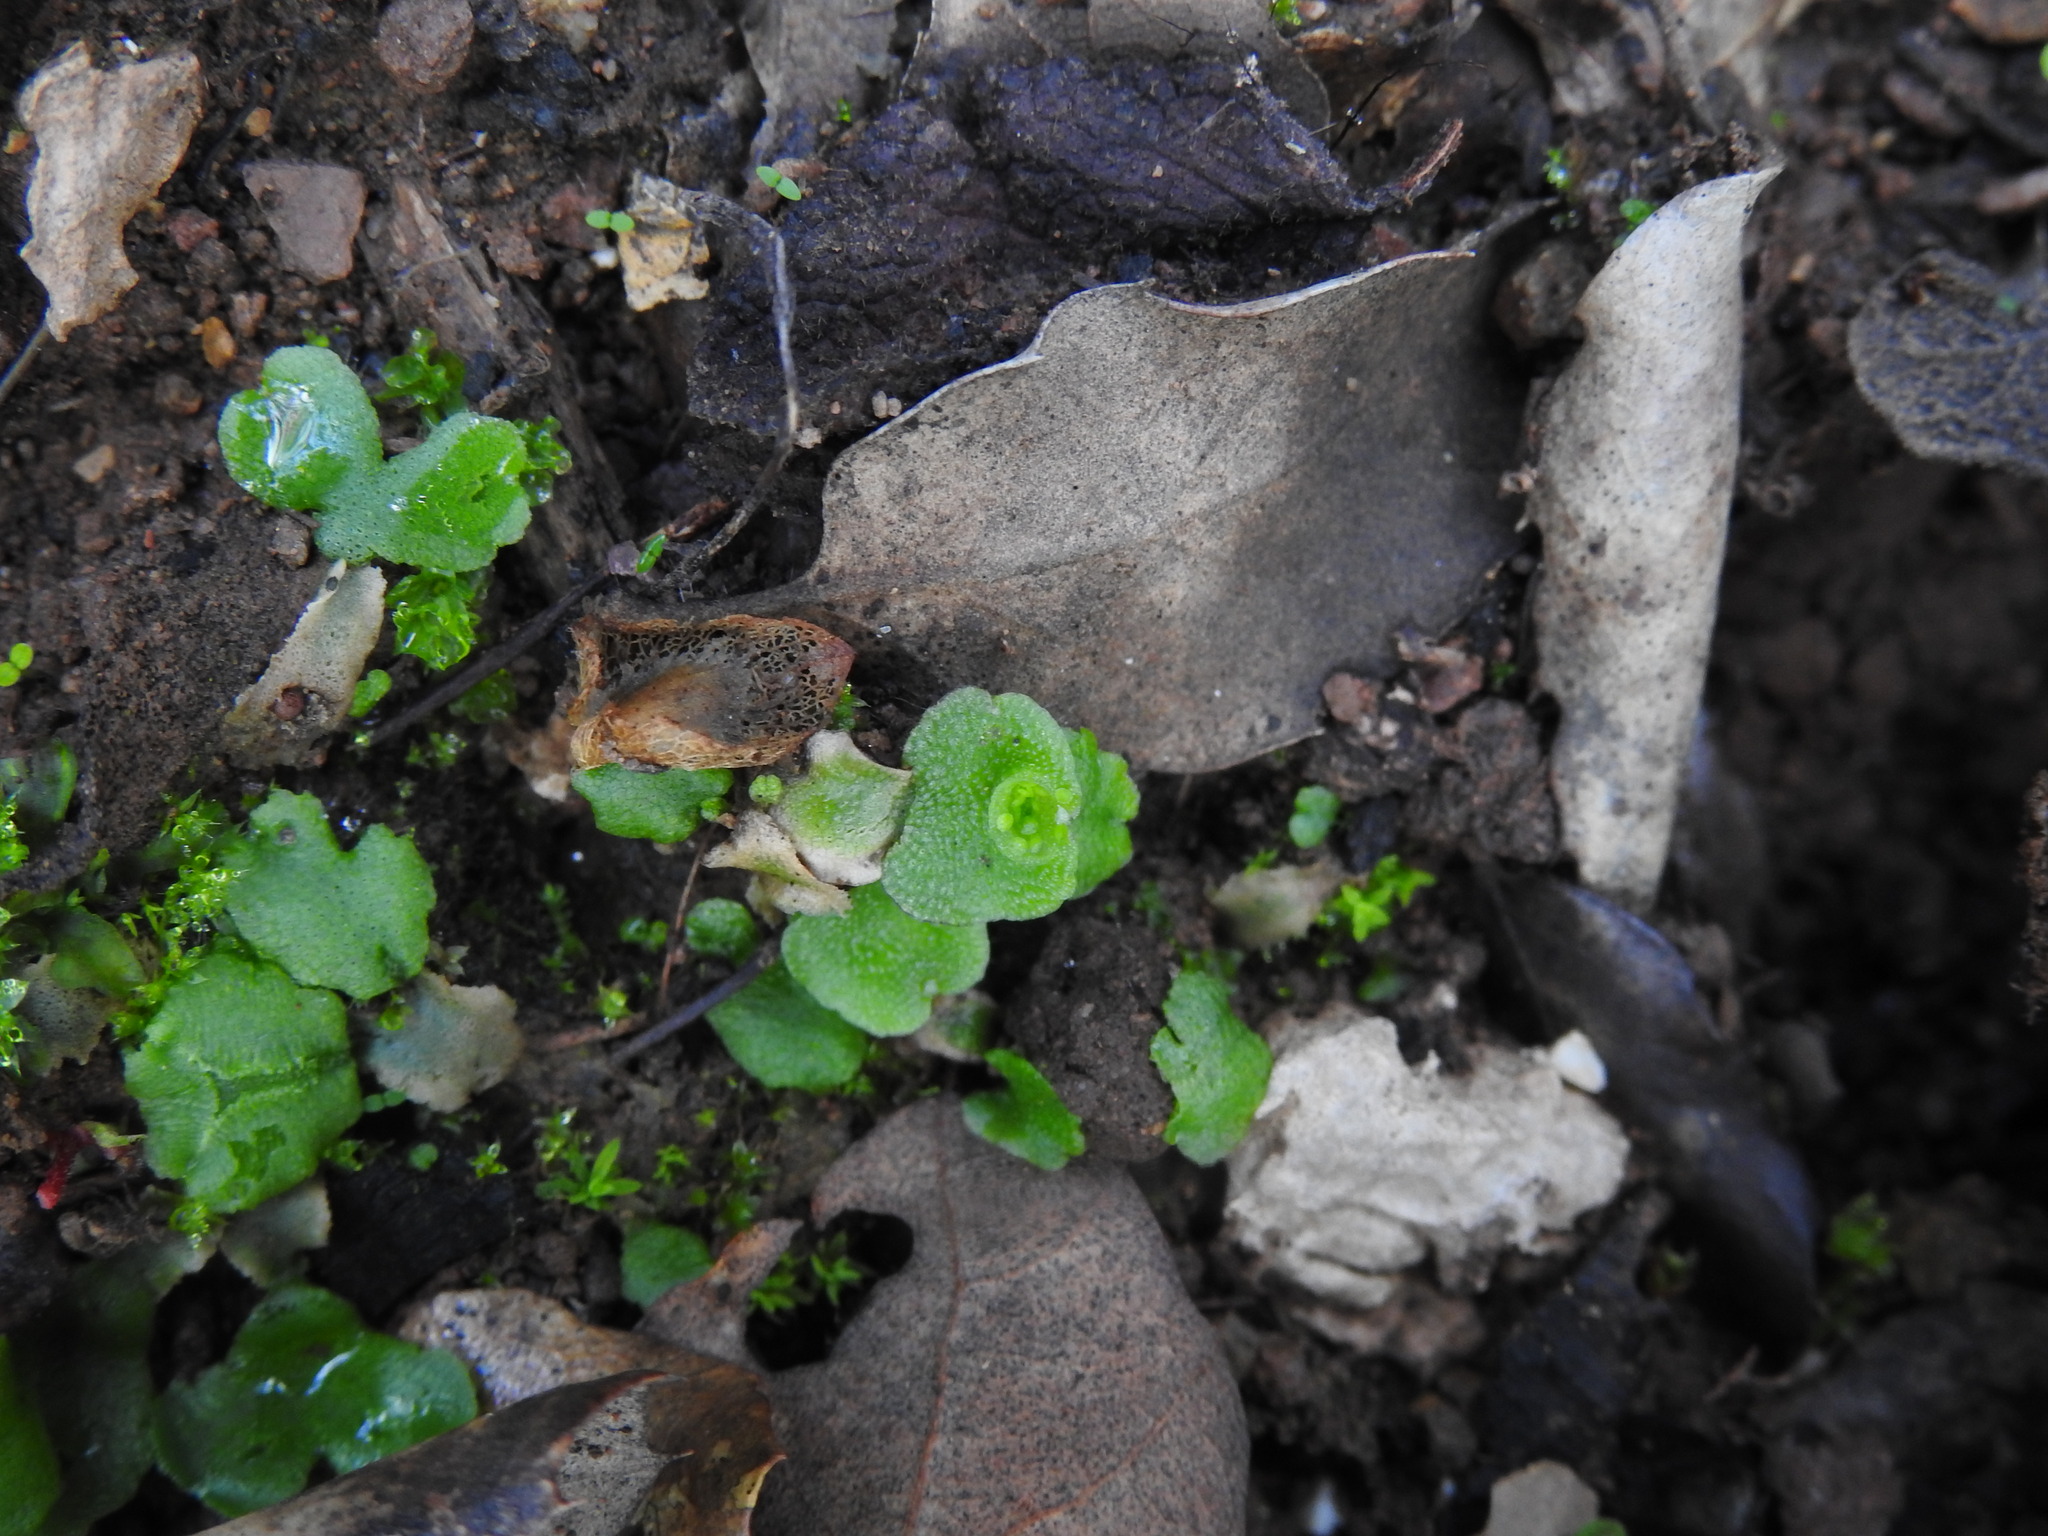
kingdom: Plantae
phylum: Marchantiophyta
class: Marchantiopsida
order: Lunulariales
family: Lunulariaceae
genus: Lunularia
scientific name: Lunularia cruciata
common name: Crescent-cup liverwort
